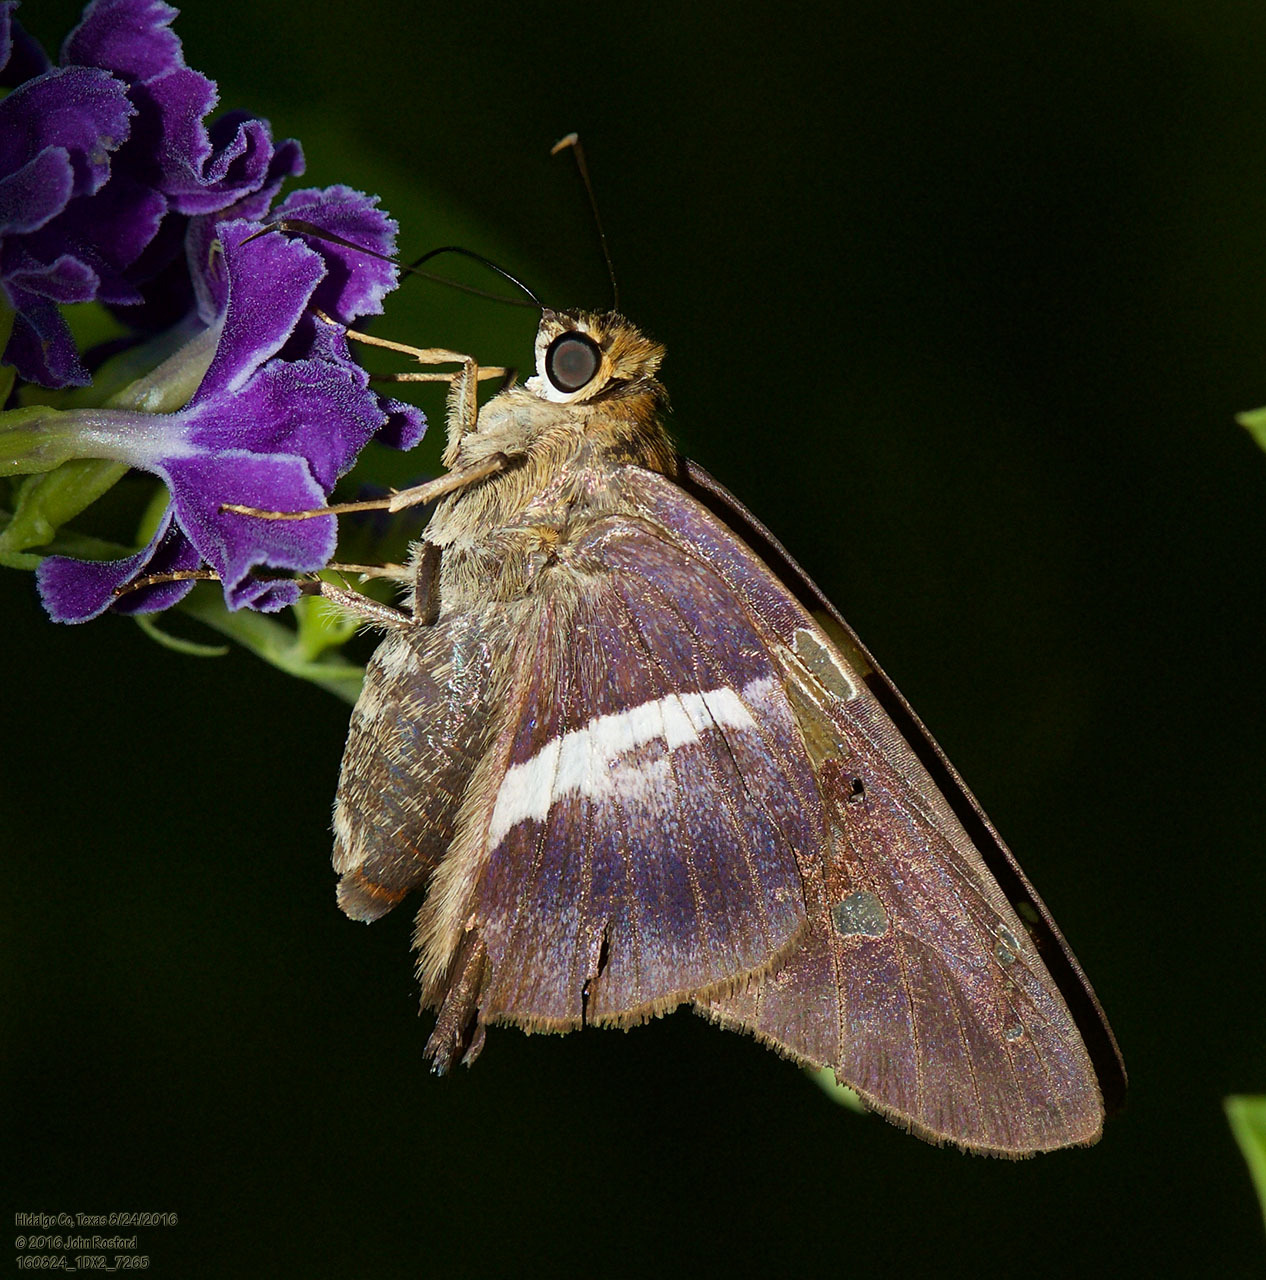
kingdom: Animalia
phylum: Arthropoda
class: Insecta
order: Lepidoptera
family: Hesperiidae
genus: Aguna
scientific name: Aguna asander
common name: Gold-spotted aguna
